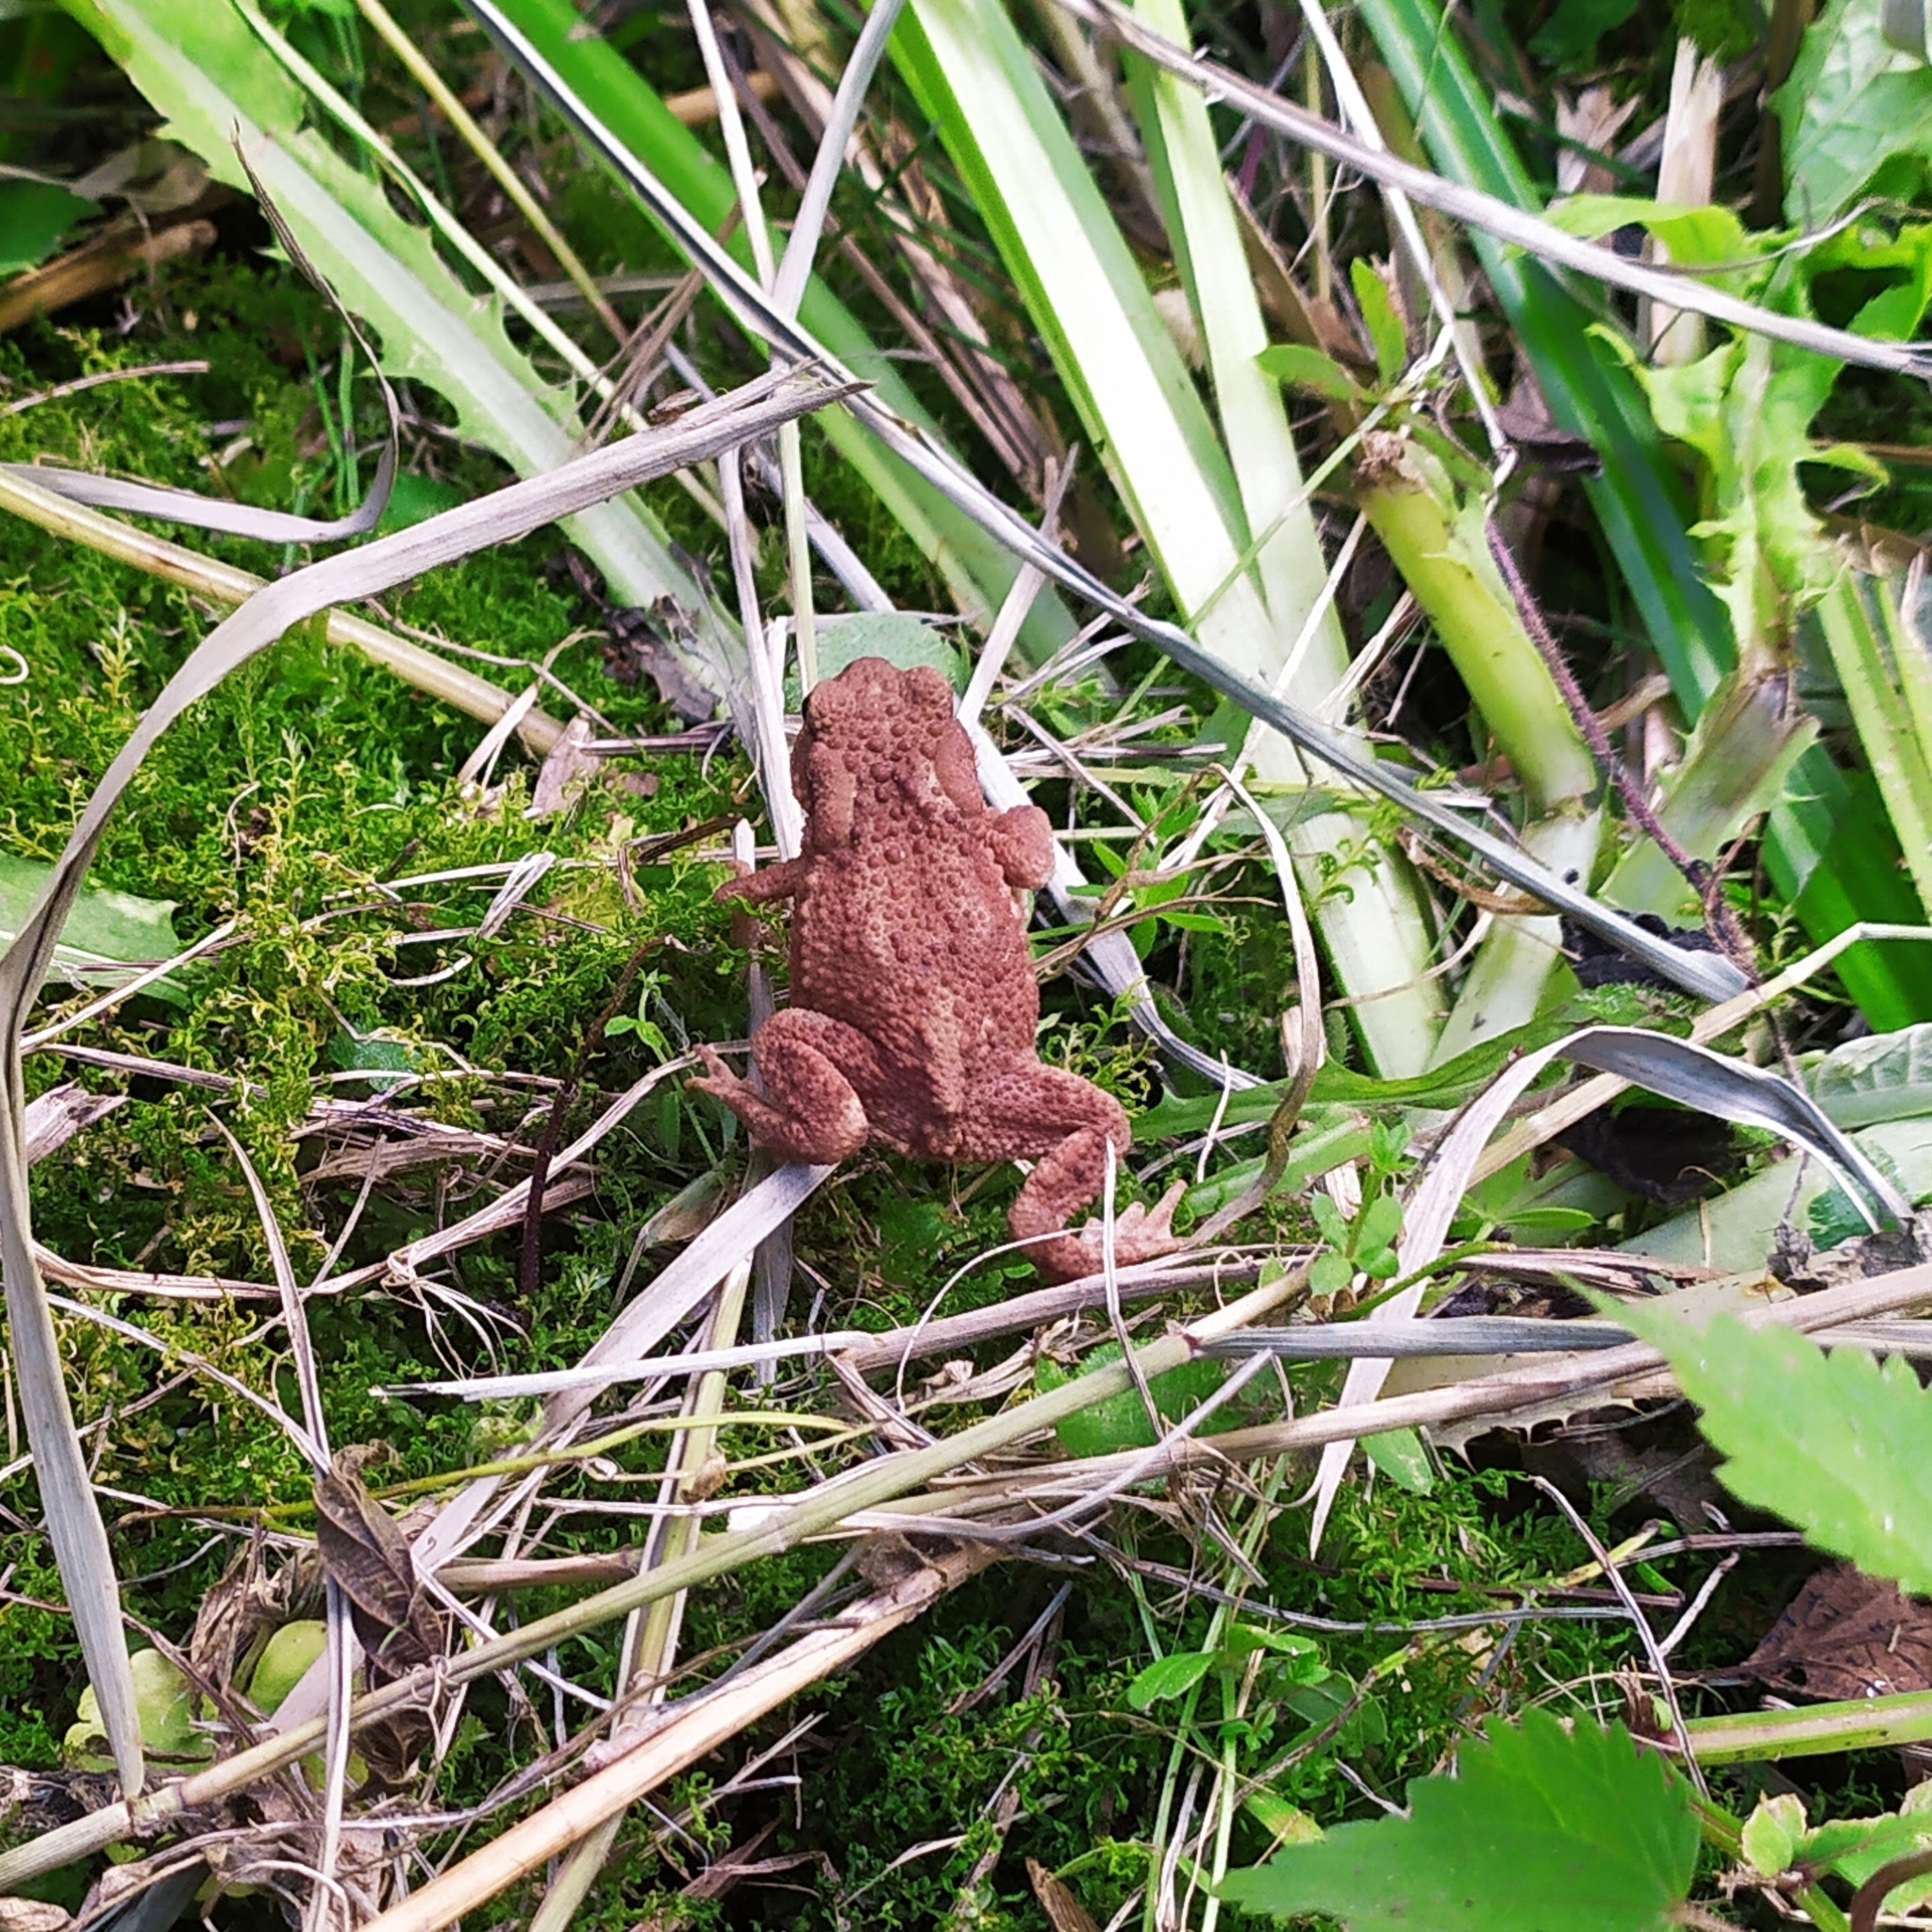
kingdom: Animalia
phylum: Chordata
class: Amphibia
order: Anura
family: Bufonidae
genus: Bufo
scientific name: Bufo bufo
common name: Common toad
